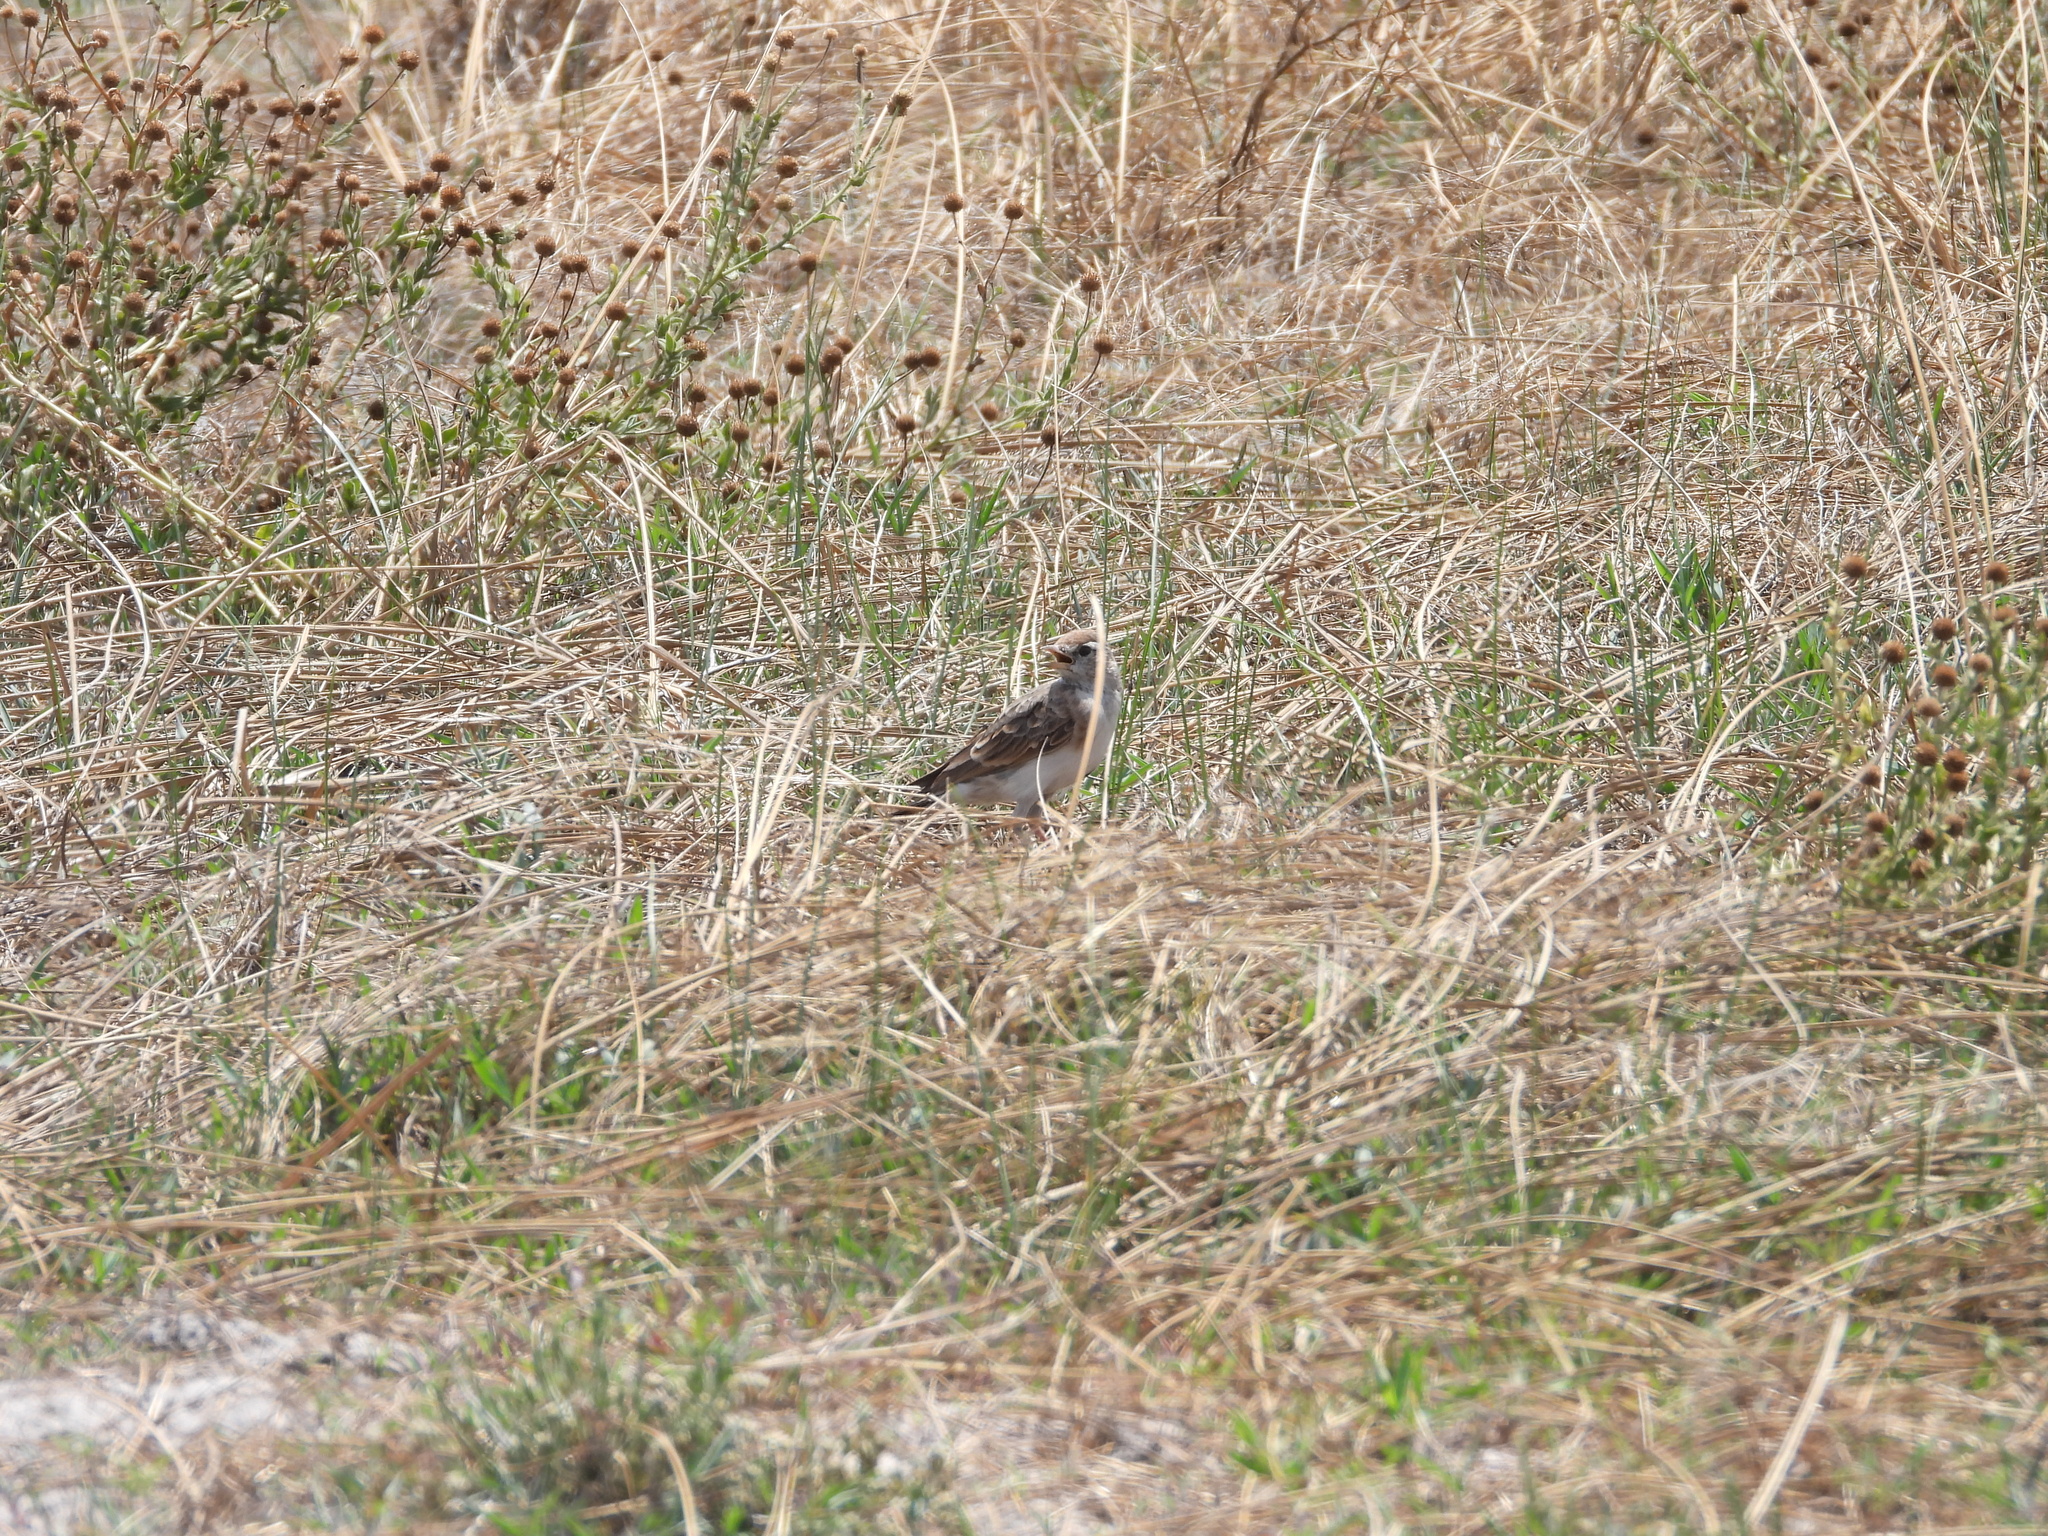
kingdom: Animalia
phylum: Chordata
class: Aves
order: Passeriformes
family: Alaudidae
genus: Calandrella
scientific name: Calandrella cinerea
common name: Red-capped lark
